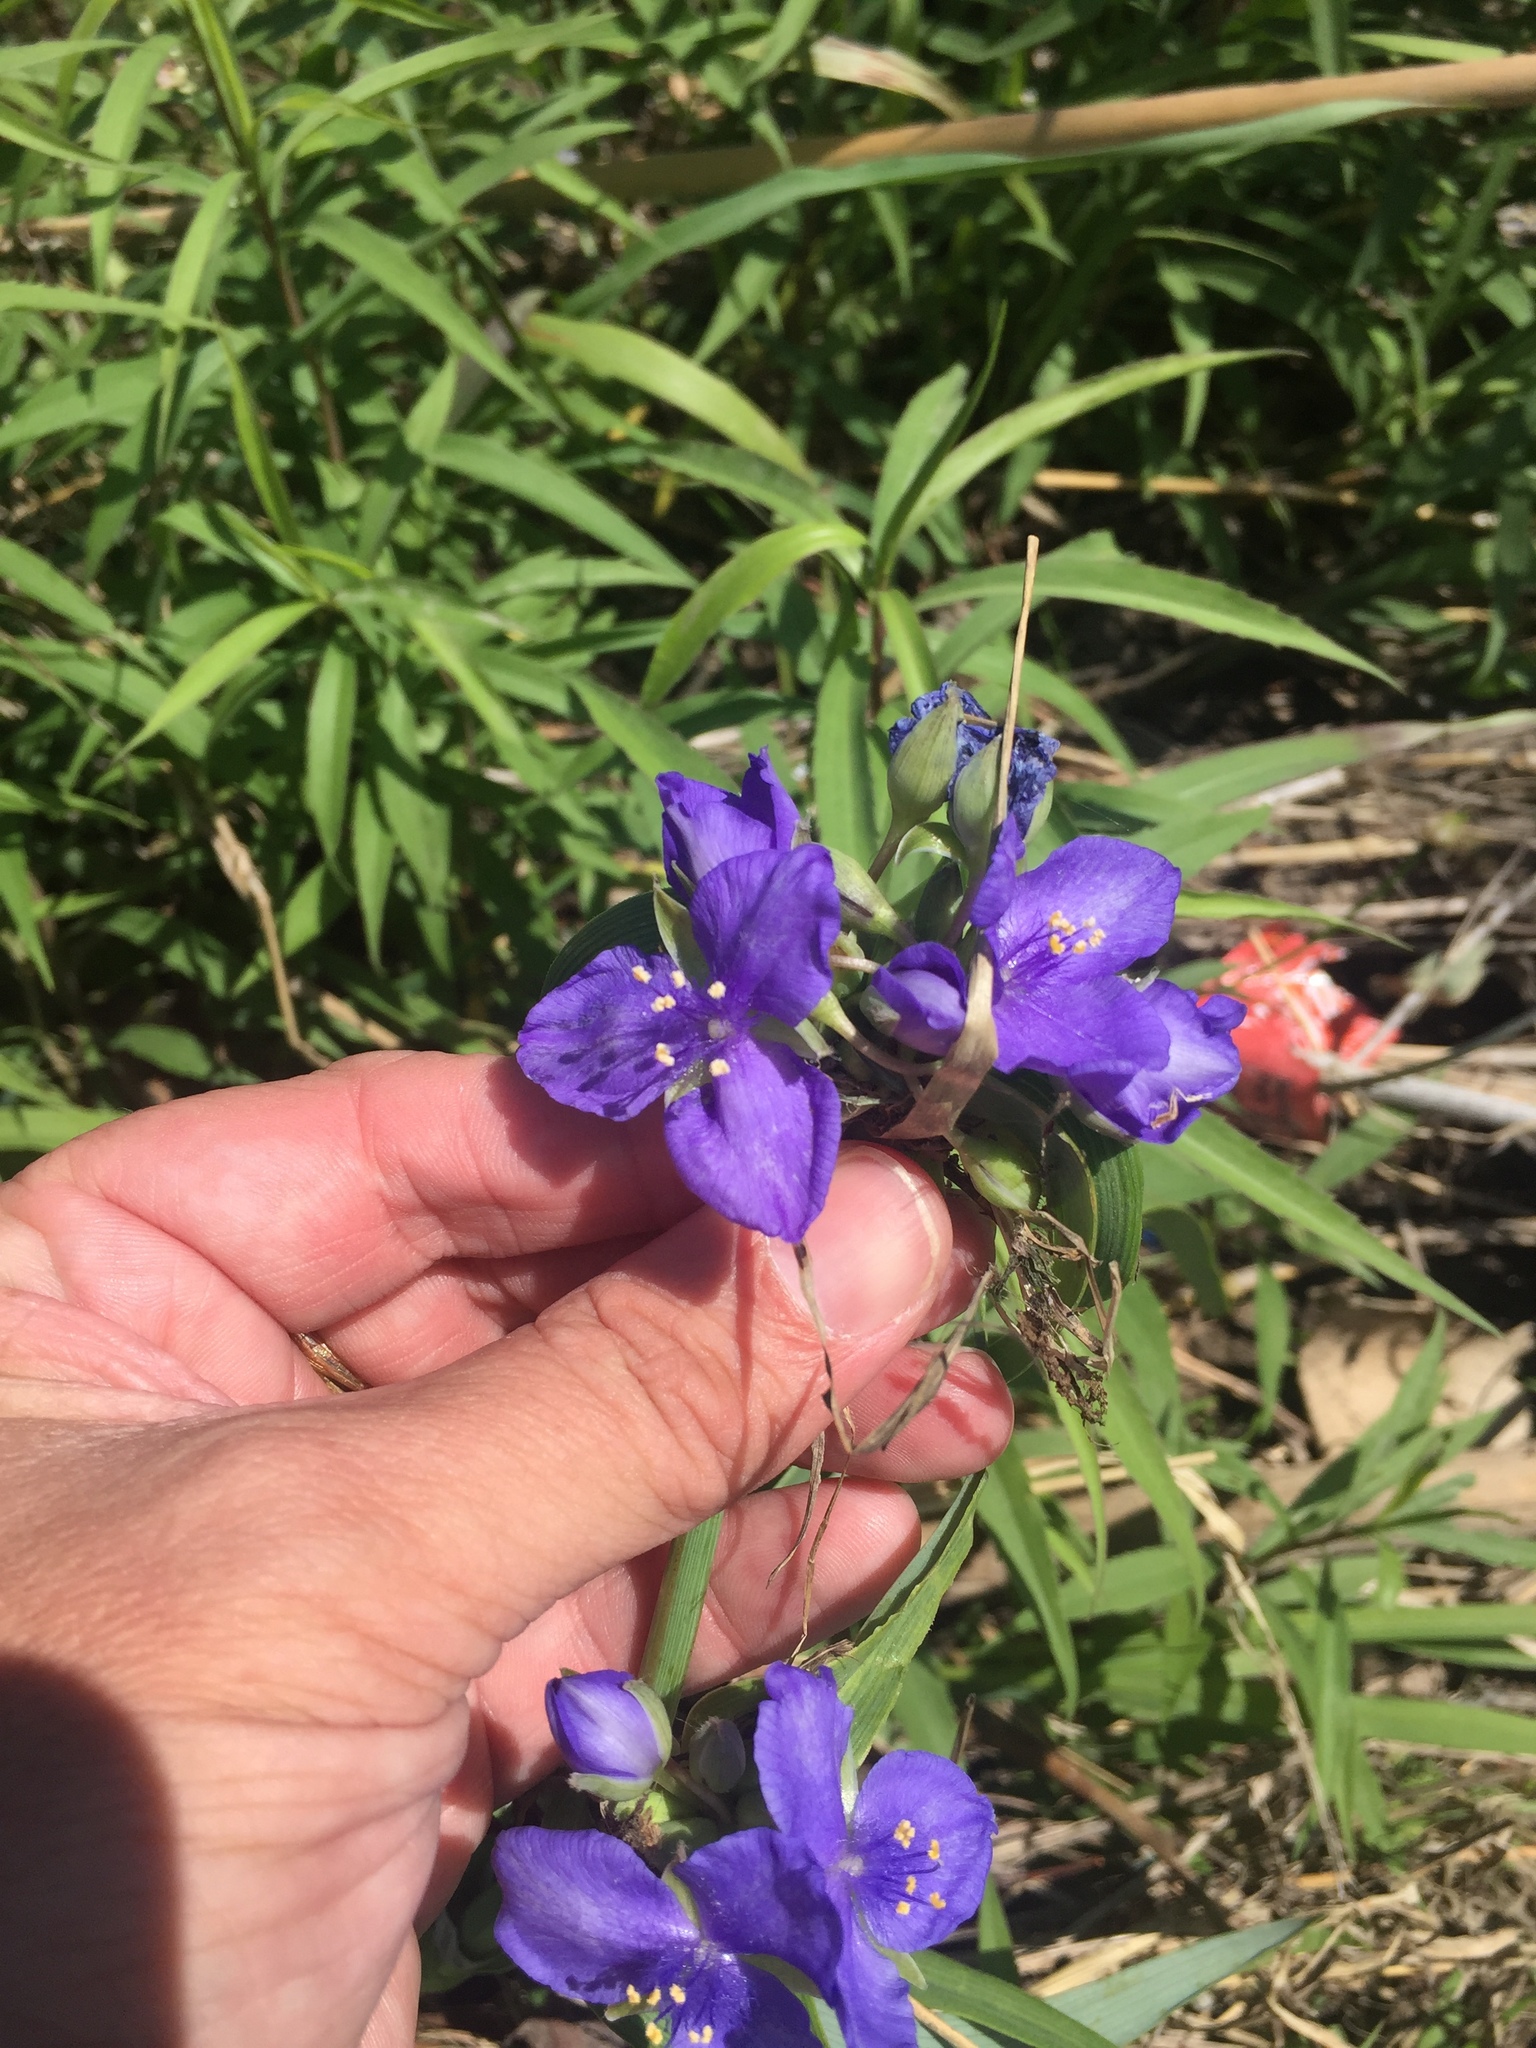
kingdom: Plantae
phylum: Tracheophyta
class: Liliopsida
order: Commelinales
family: Commelinaceae
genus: Tradescantia
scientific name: Tradescantia ohiensis
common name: Ohio spiderwort
